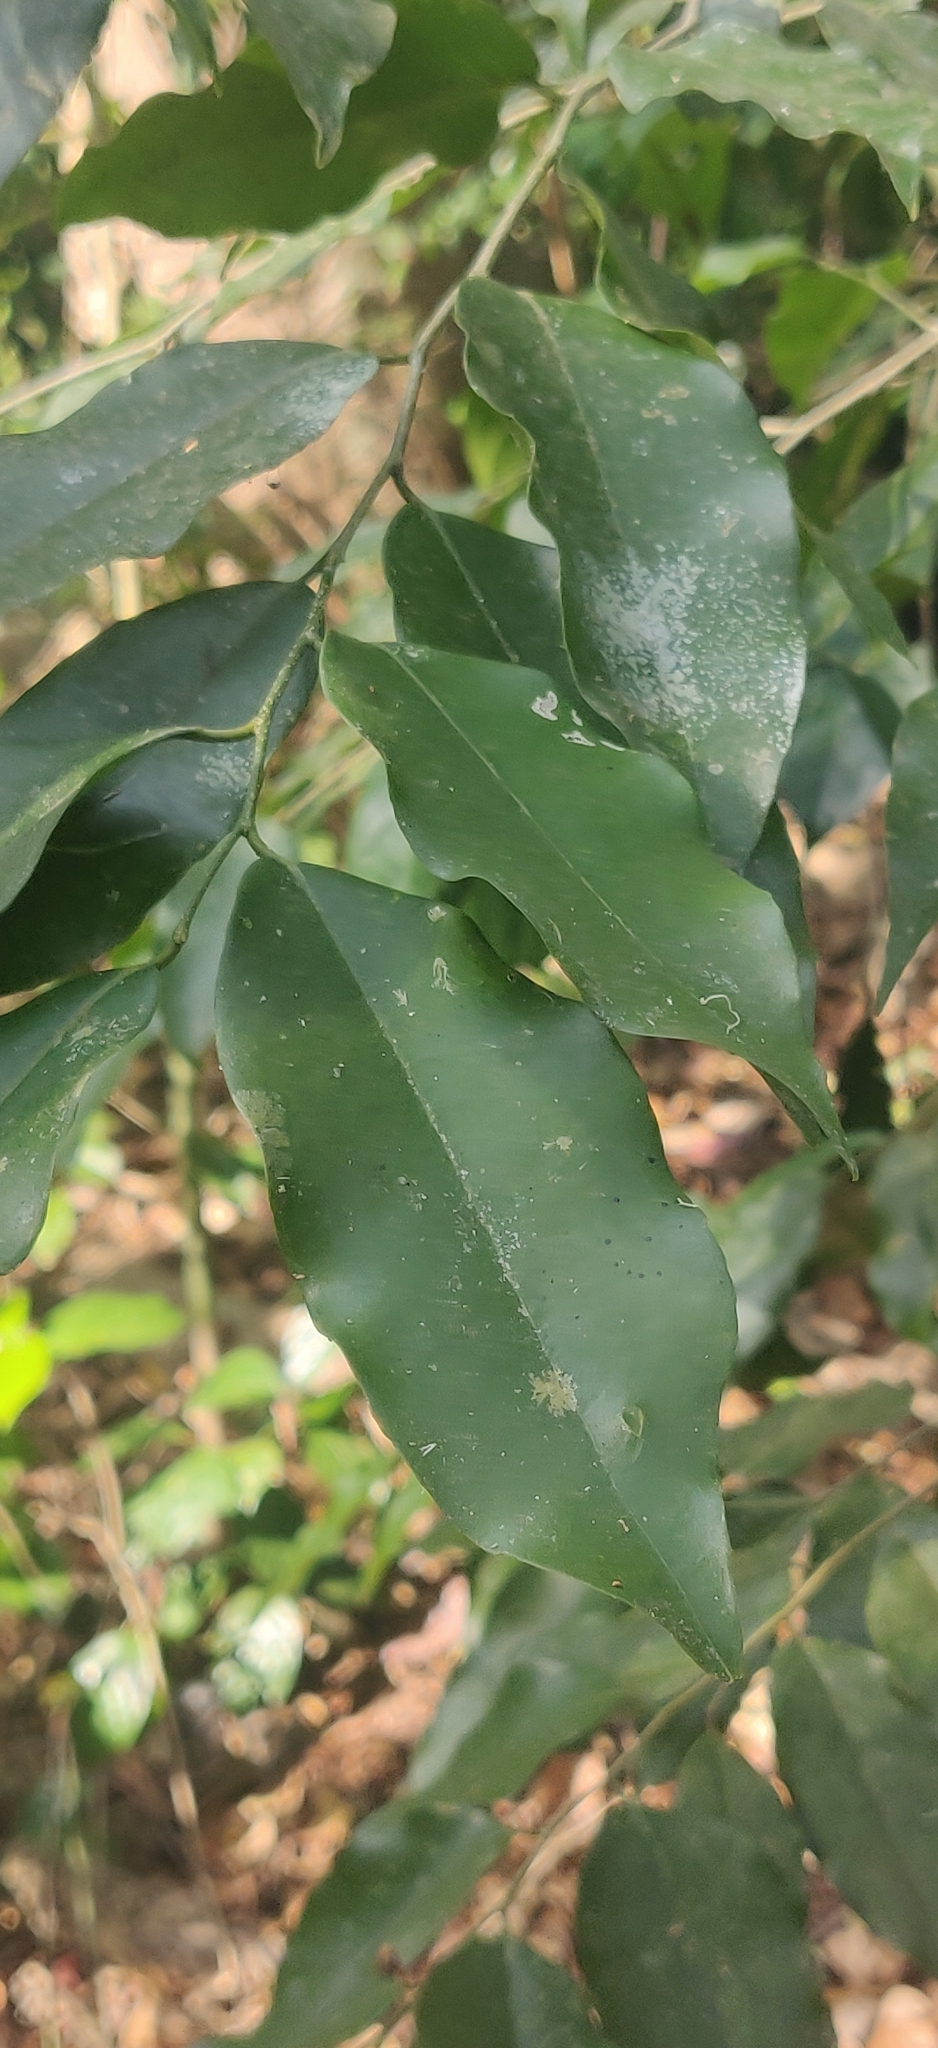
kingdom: Plantae
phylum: Tracheophyta
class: Magnoliopsida
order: Malpighiales
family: Putranjivaceae
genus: Drypetes
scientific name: Drypetes andamanica
